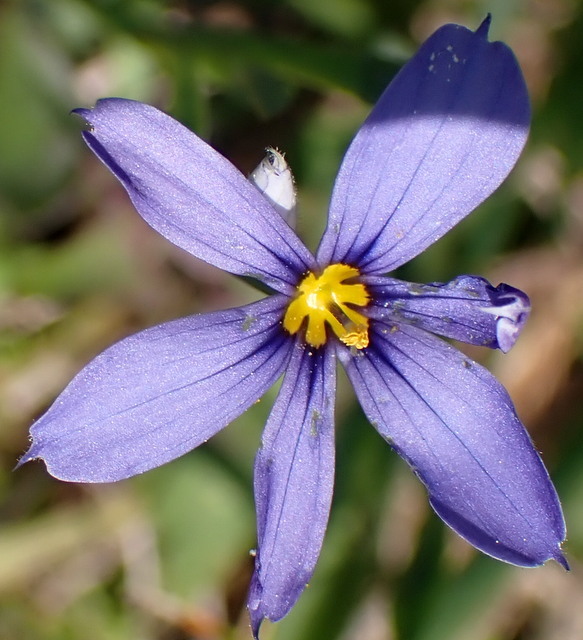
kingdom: Plantae
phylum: Tracheophyta
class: Liliopsida
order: Asparagales
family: Iridaceae
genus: Sisyrinchium
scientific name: Sisyrinchium angustifolium
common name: Narrow-leaf blue-eyed-grass
